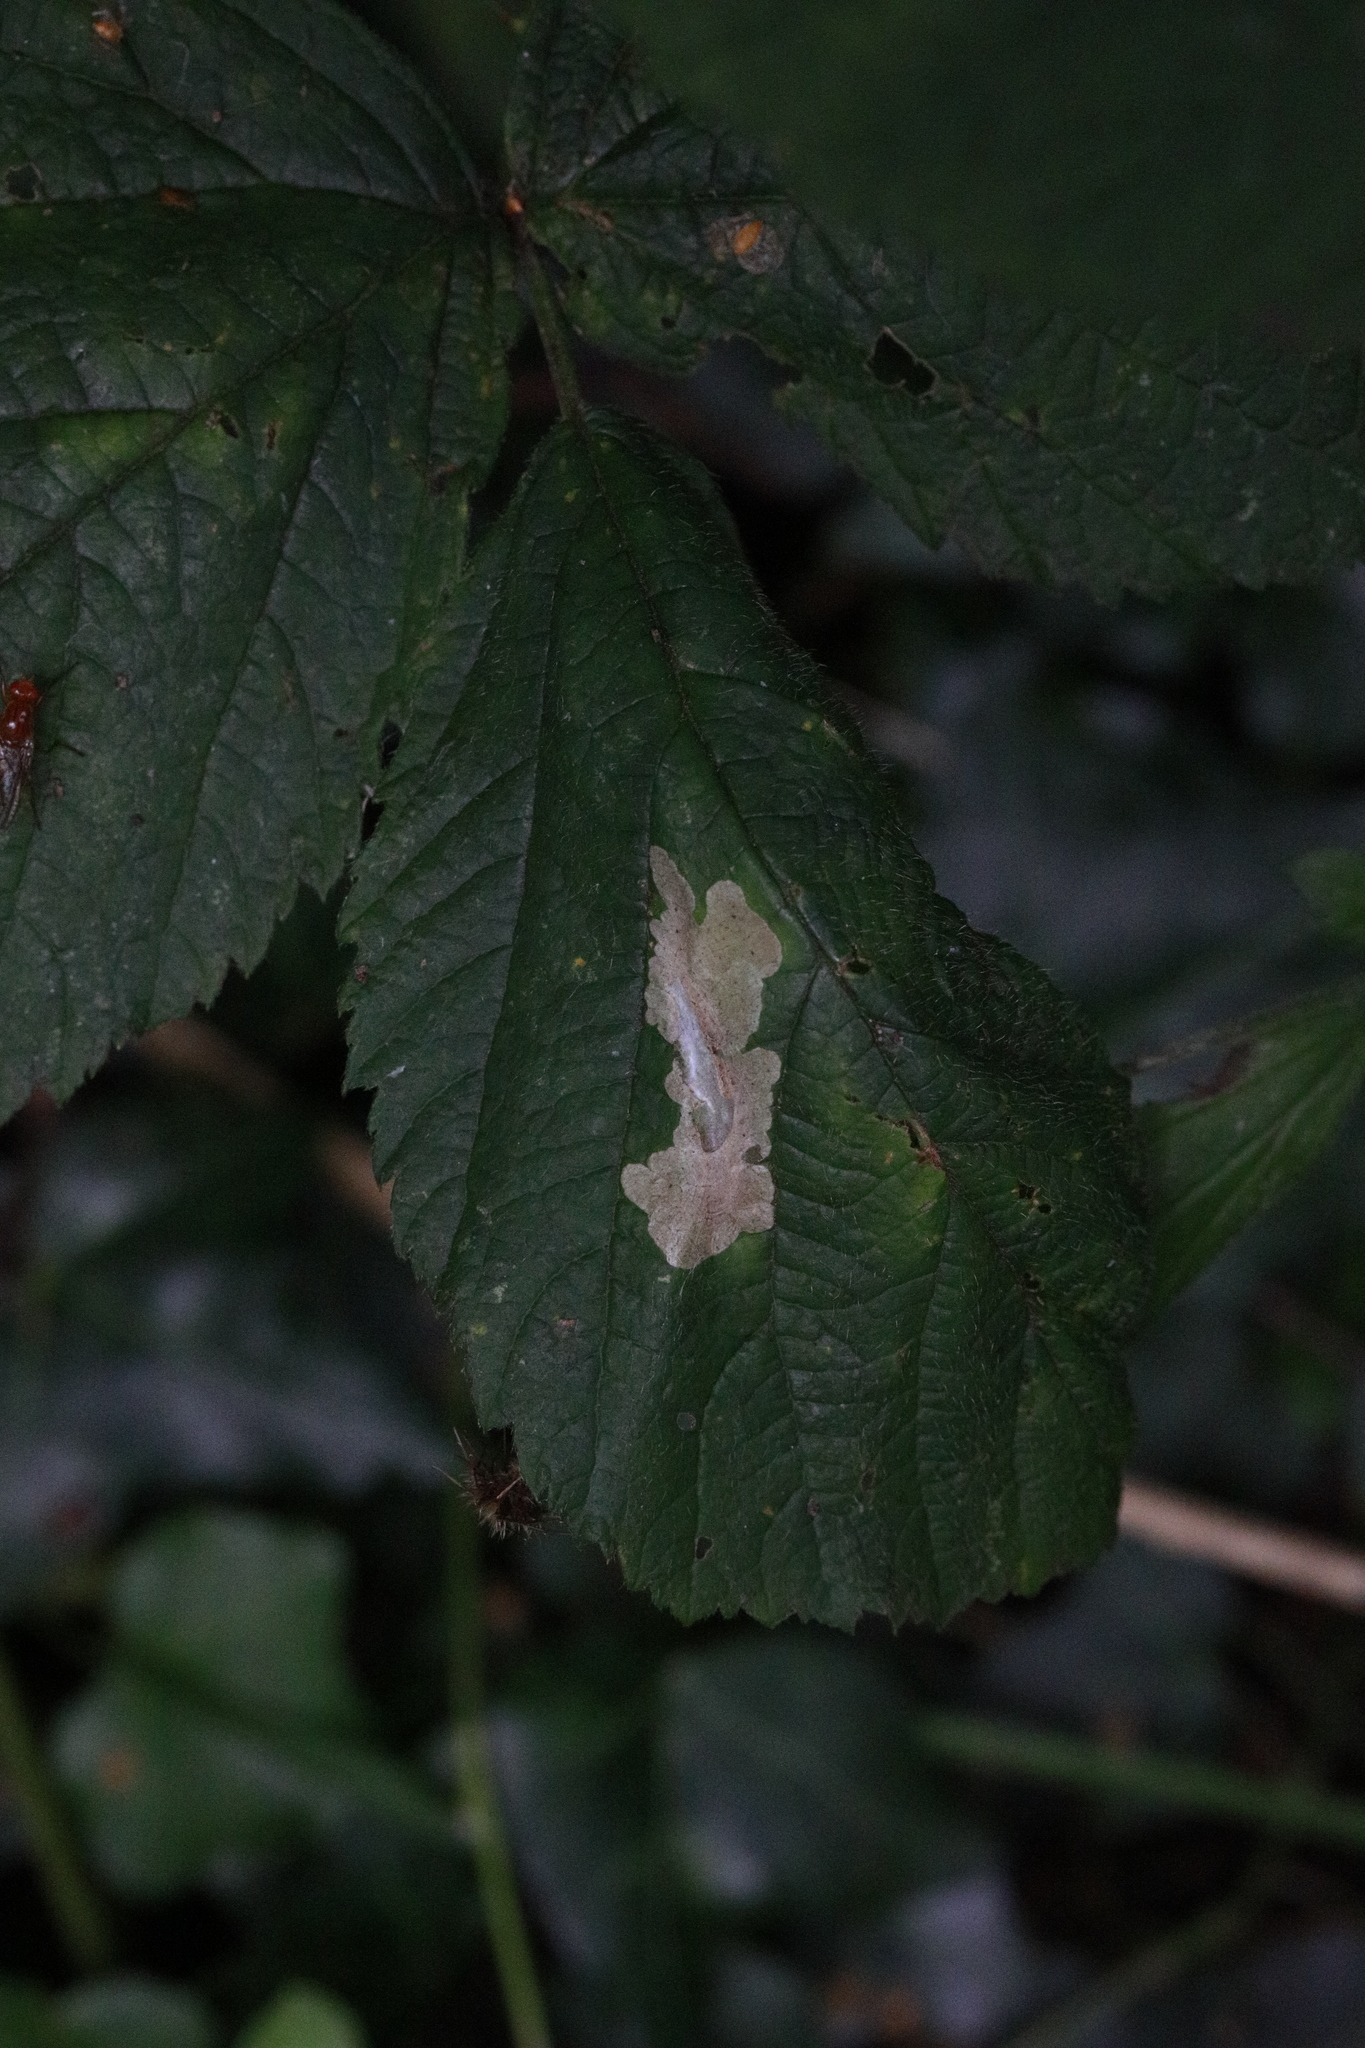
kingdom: Animalia
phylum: Arthropoda
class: Insecta
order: Lepidoptera
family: Tischeriidae
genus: Coptotriche
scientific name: Coptotriche marginea
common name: Bordered carl
